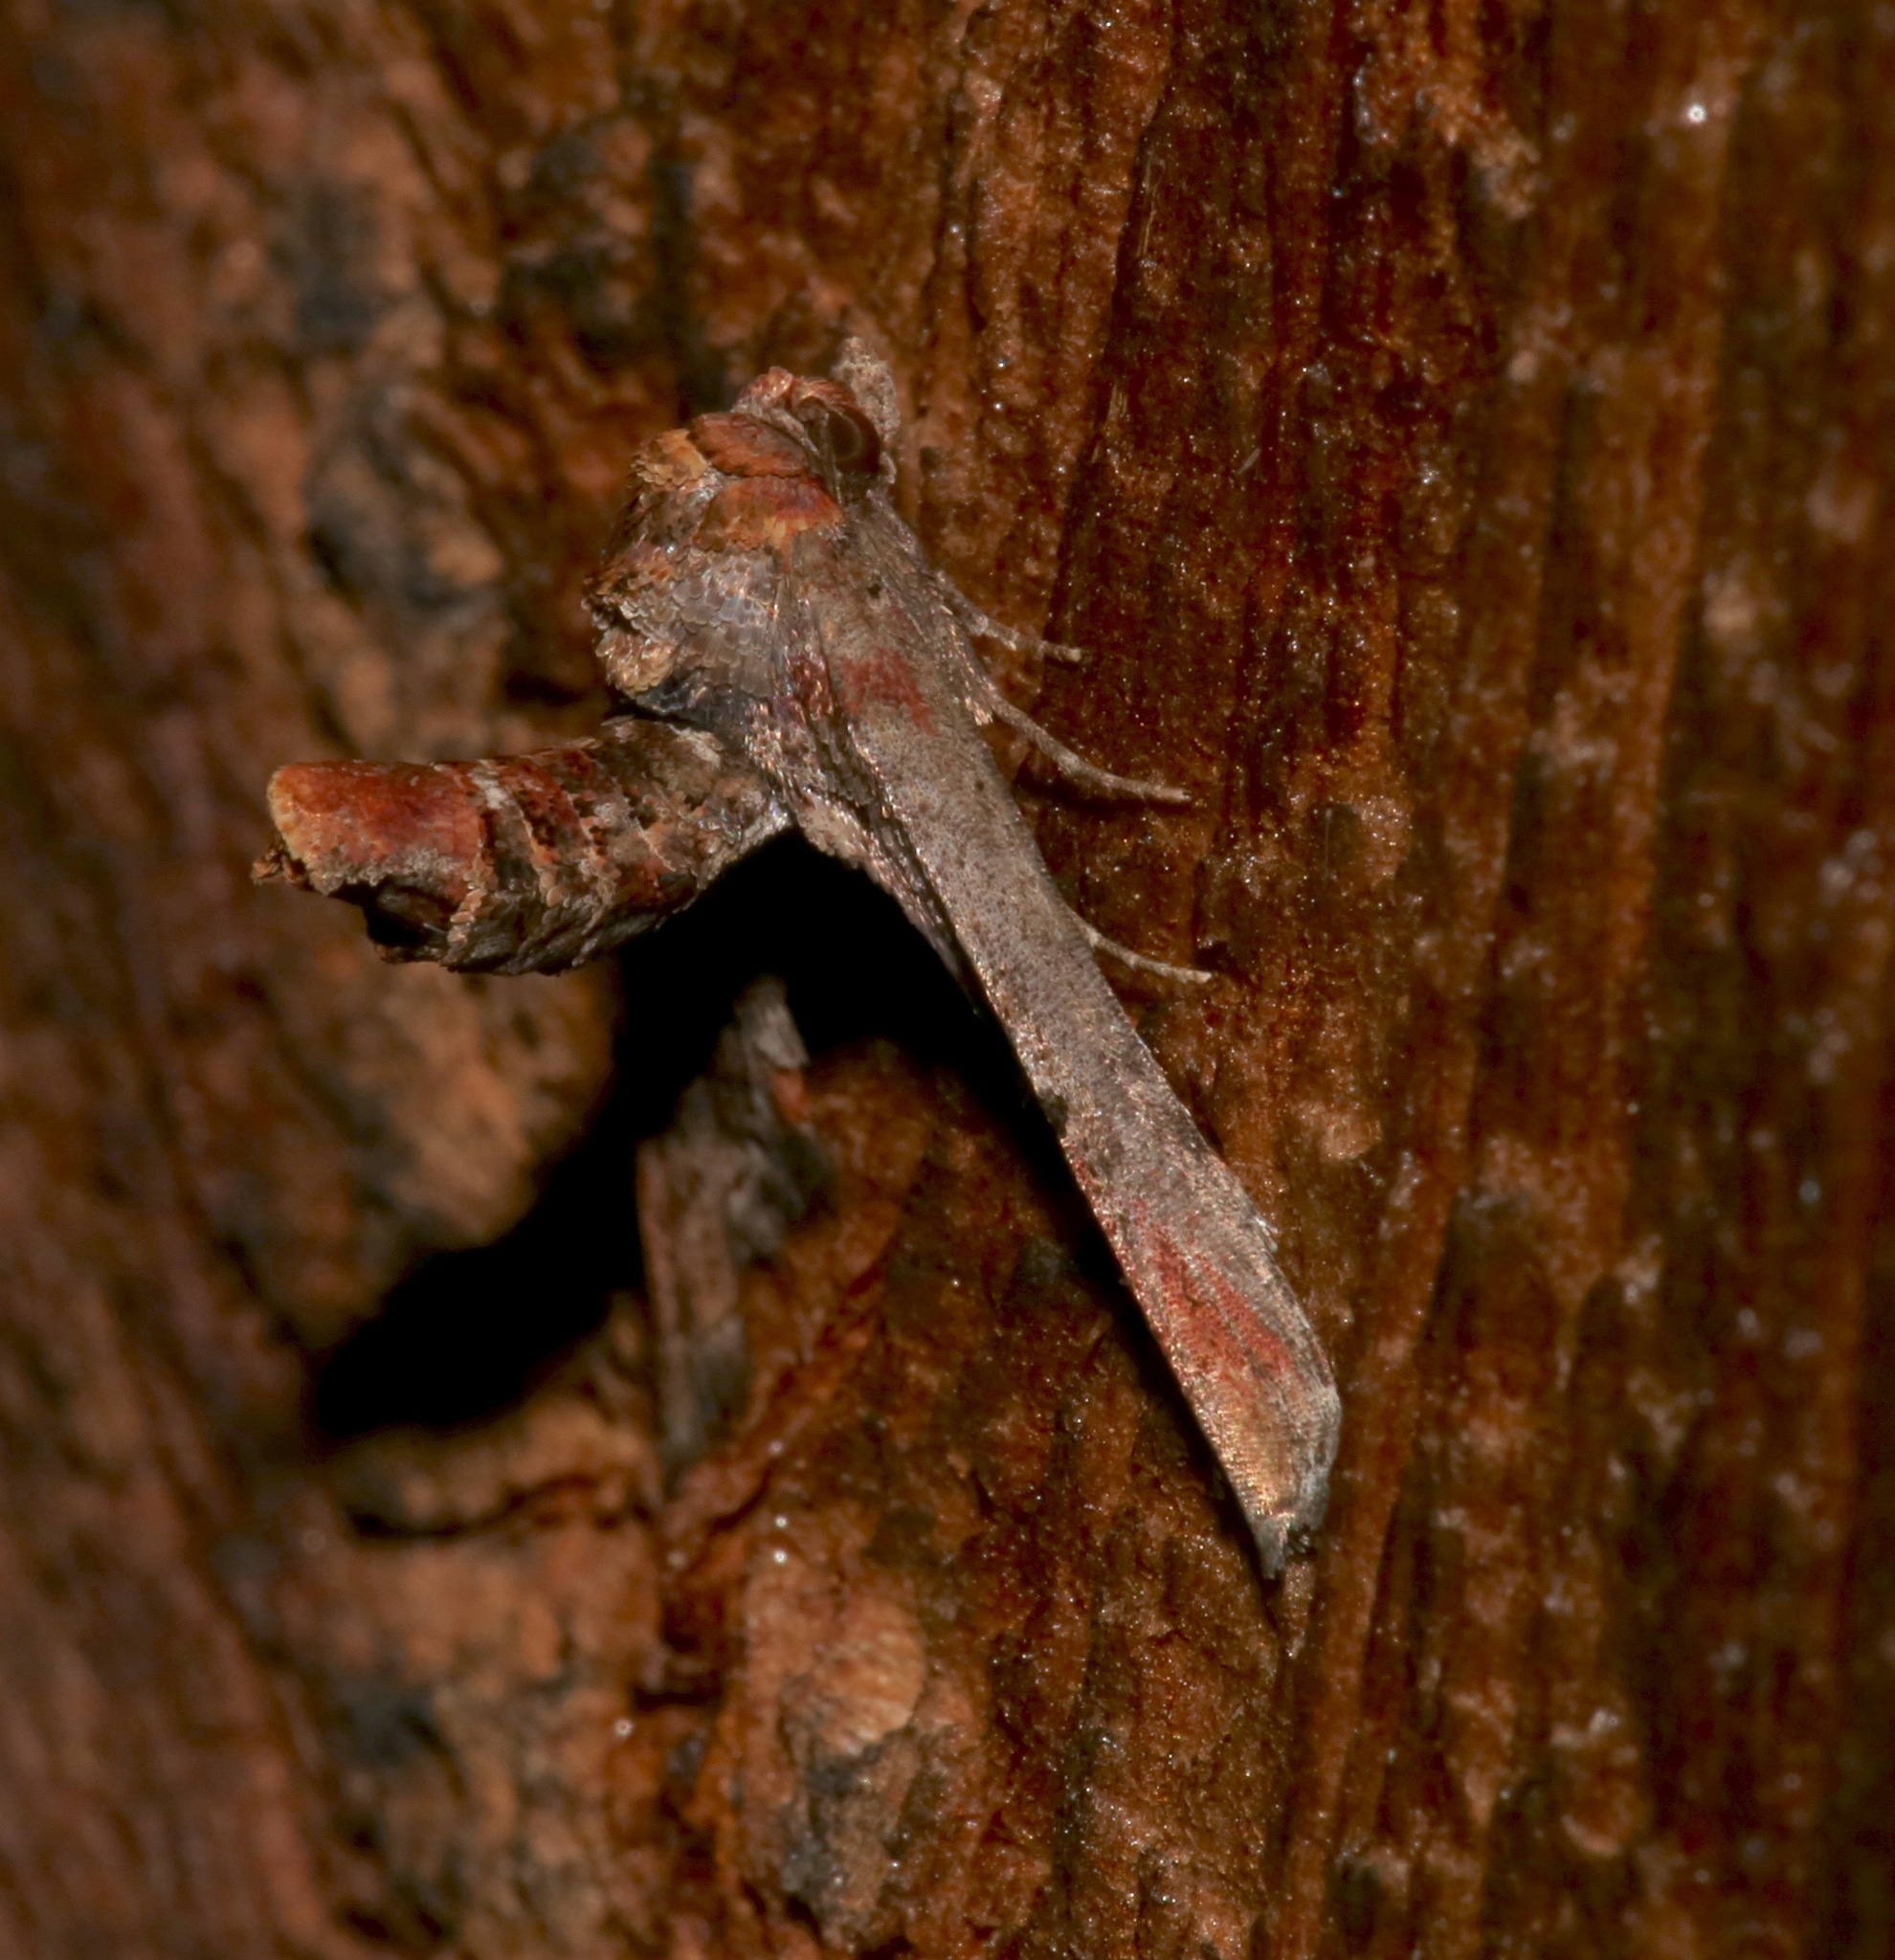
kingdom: Animalia
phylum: Arthropoda
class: Insecta
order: Lepidoptera
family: Euteliidae
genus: Marathyssa
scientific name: Marathyssa inficita
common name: Dark marathyssa moth
